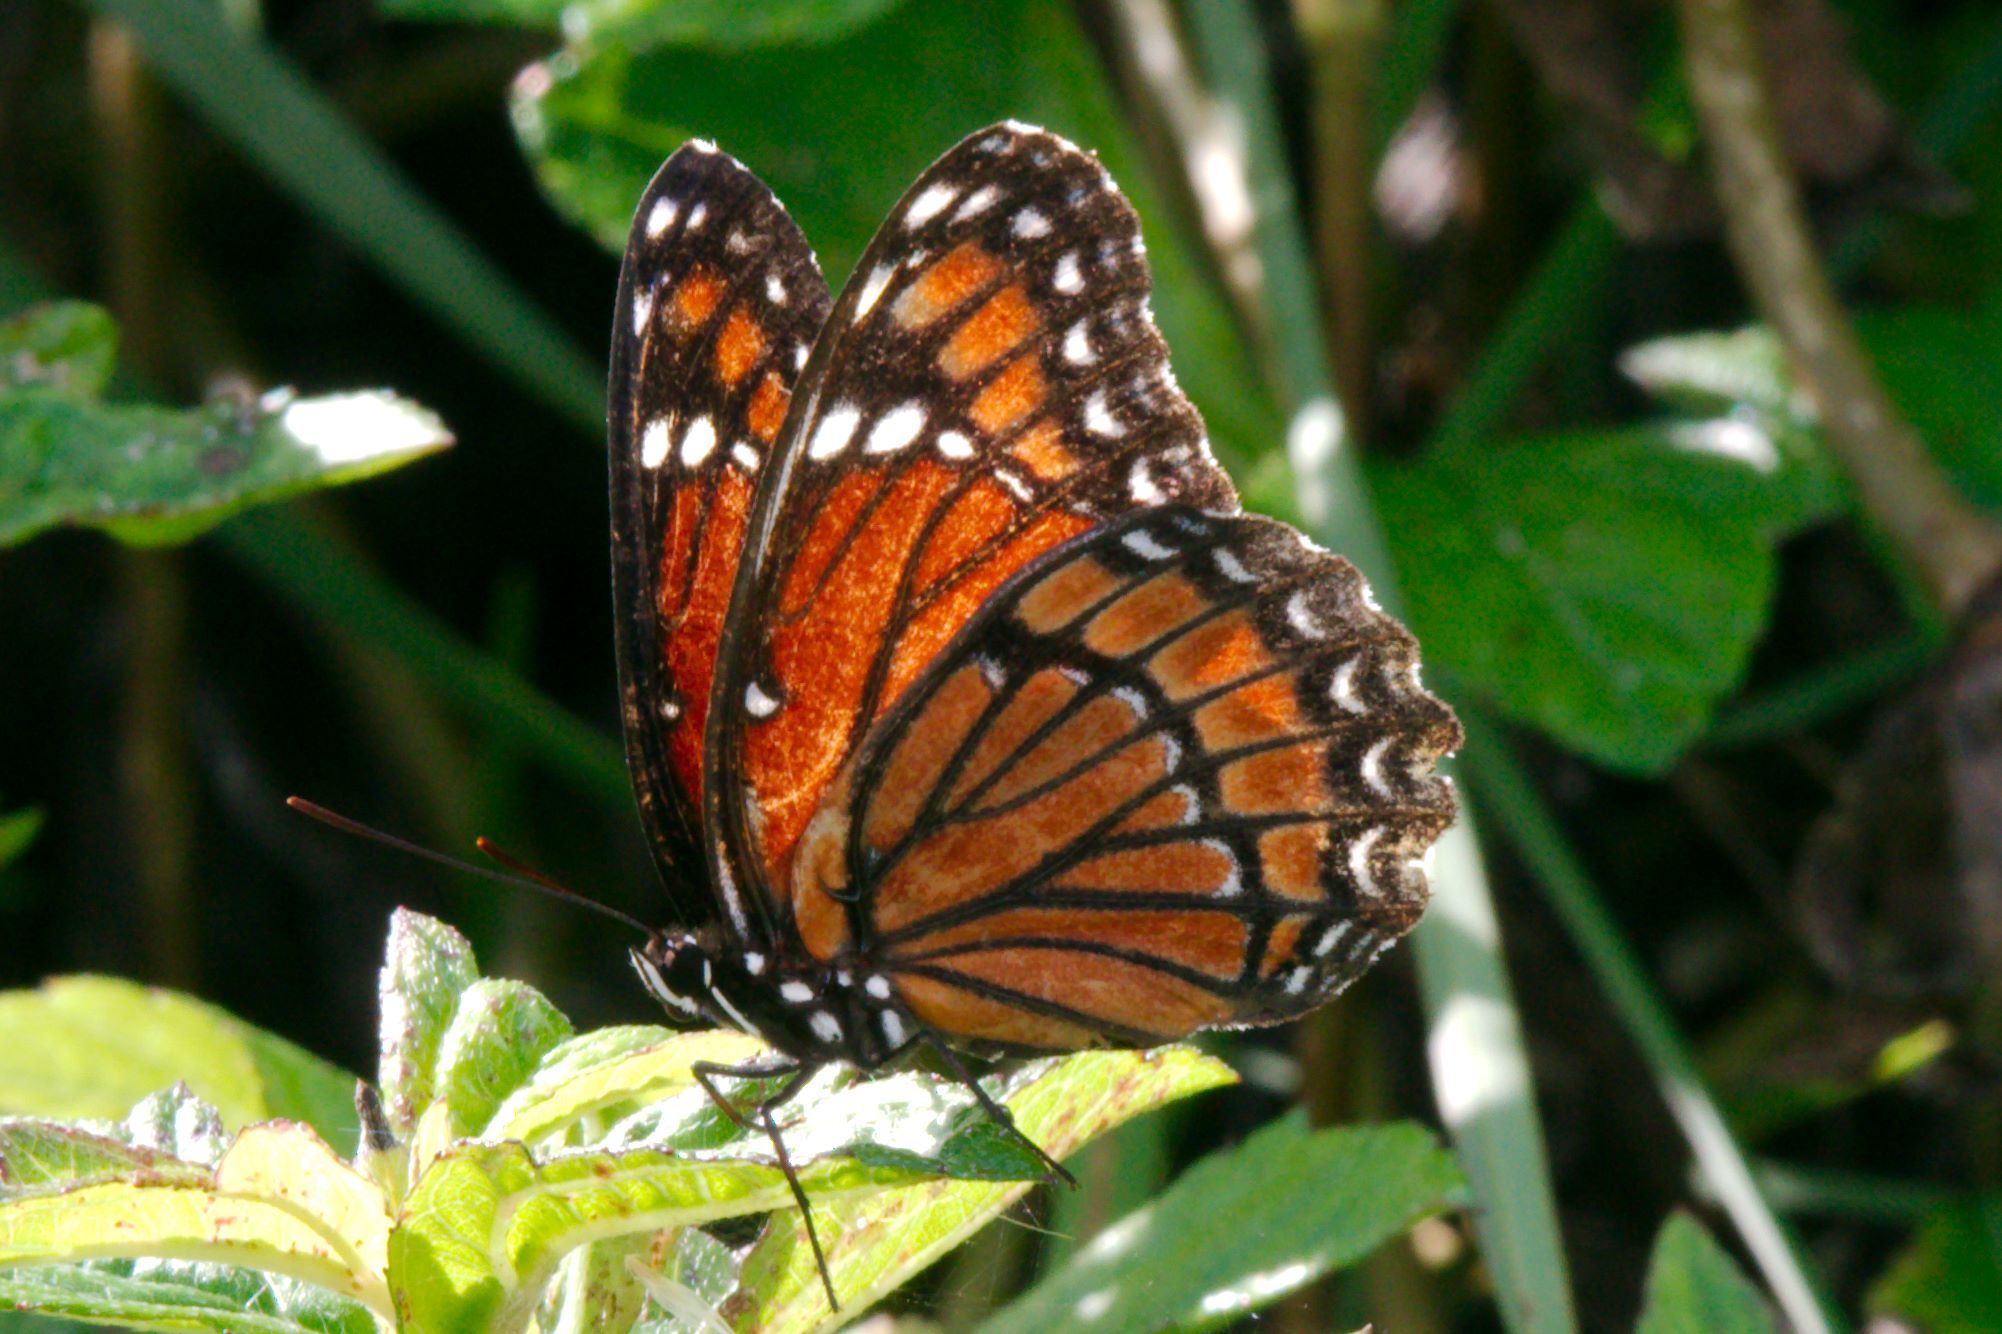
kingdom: Animalia
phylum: Arthropoda
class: Insecta
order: Lepidoptera
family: Nymphalidae
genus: Limenitis
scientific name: Limenitis archippus
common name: Viceroy
